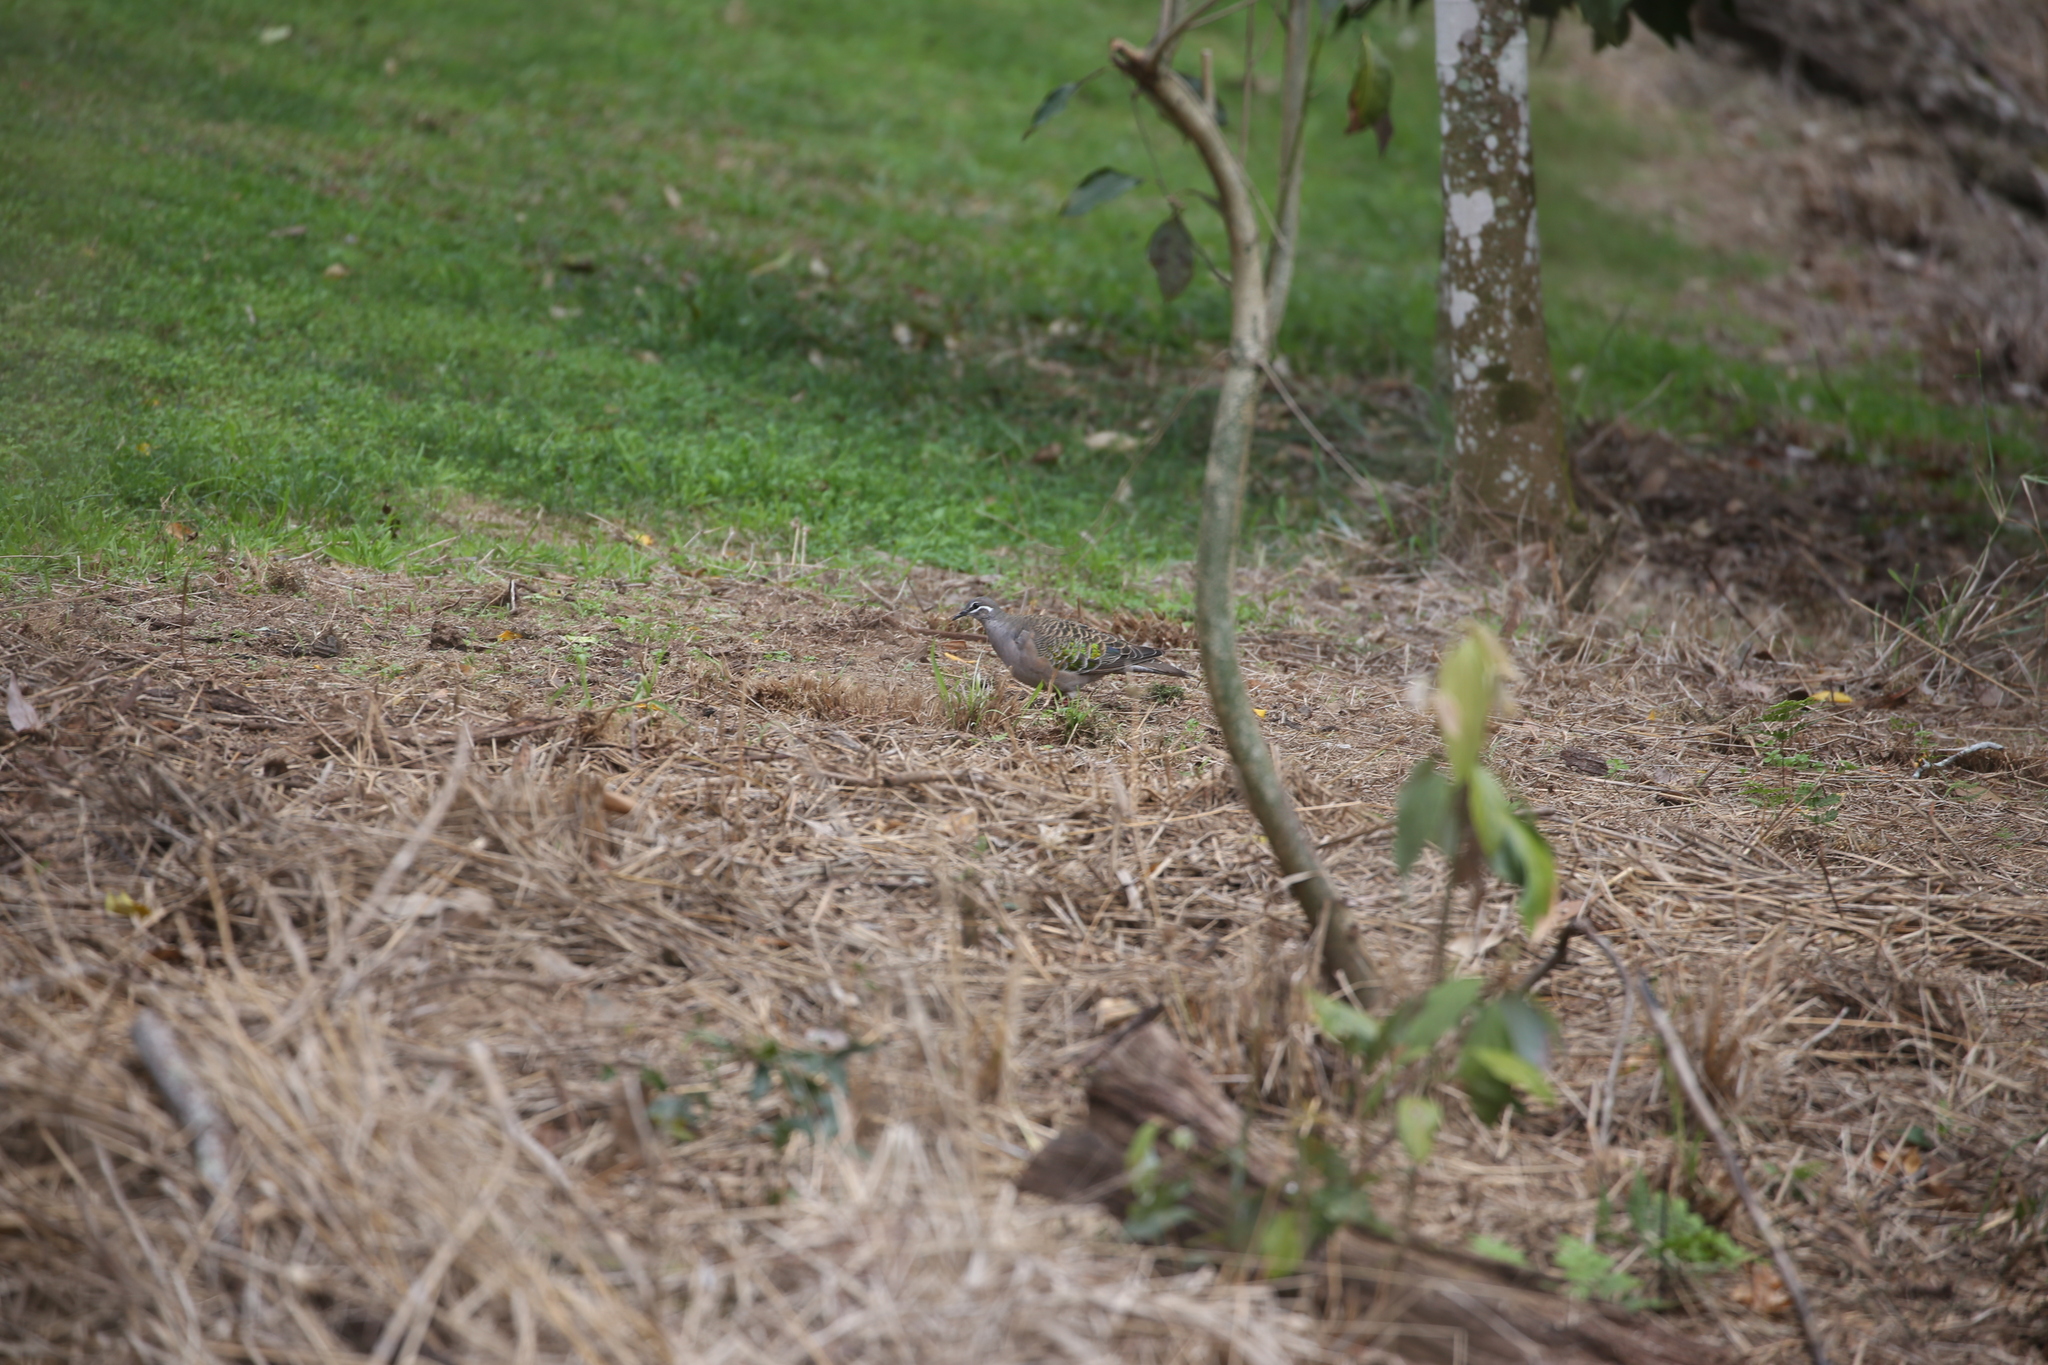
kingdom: Animalia
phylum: Chordata
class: Aves
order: Columbiformes
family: Columbidae
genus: Phaps
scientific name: Phaps chalcoptera
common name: Common bronzewing
